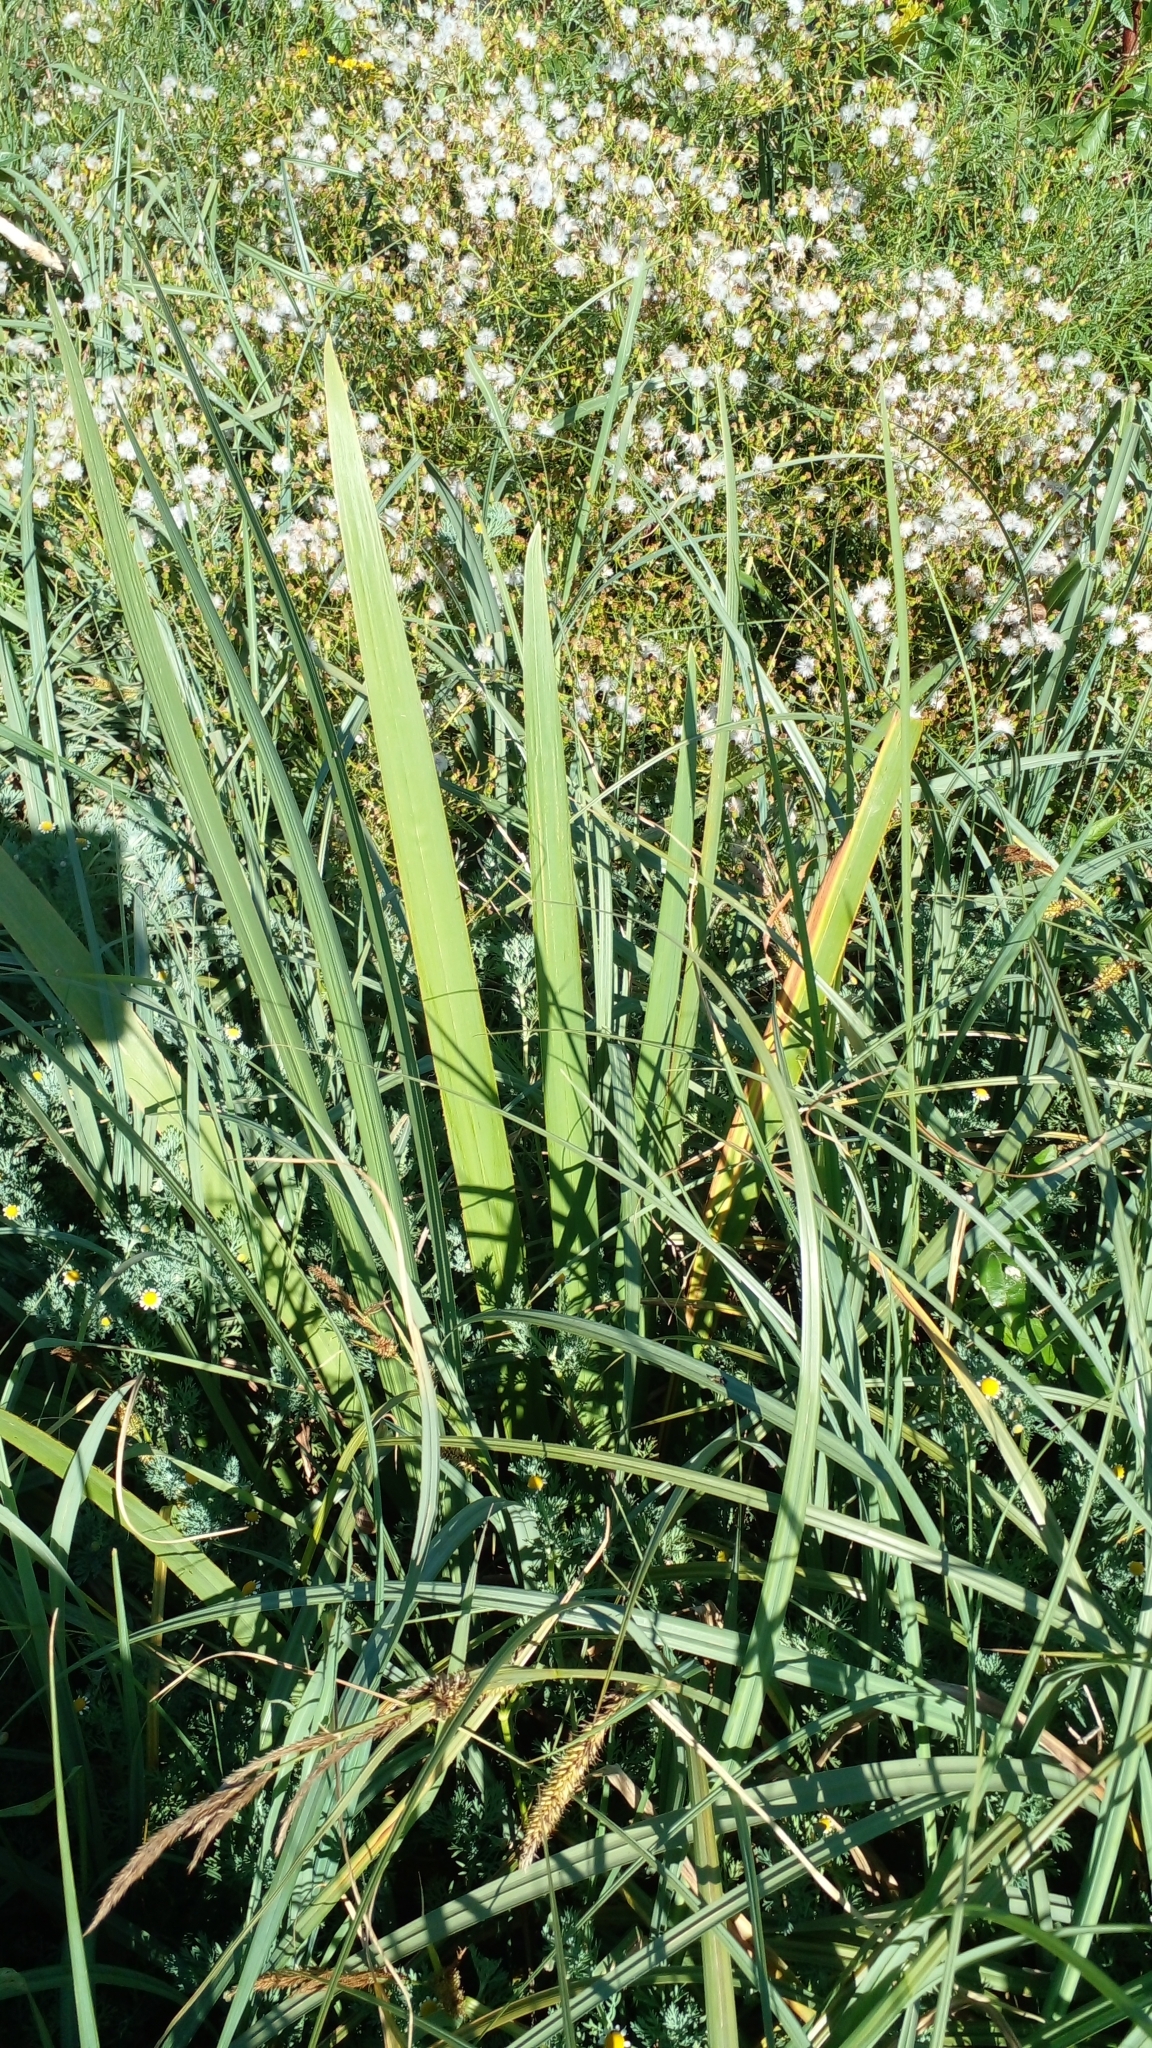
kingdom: Plantae
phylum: Tracheophyta
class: Liliopsida
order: Asparagales
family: Iridaceae
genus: Iris
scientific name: Iris pseudacorus
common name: Yellow flag
